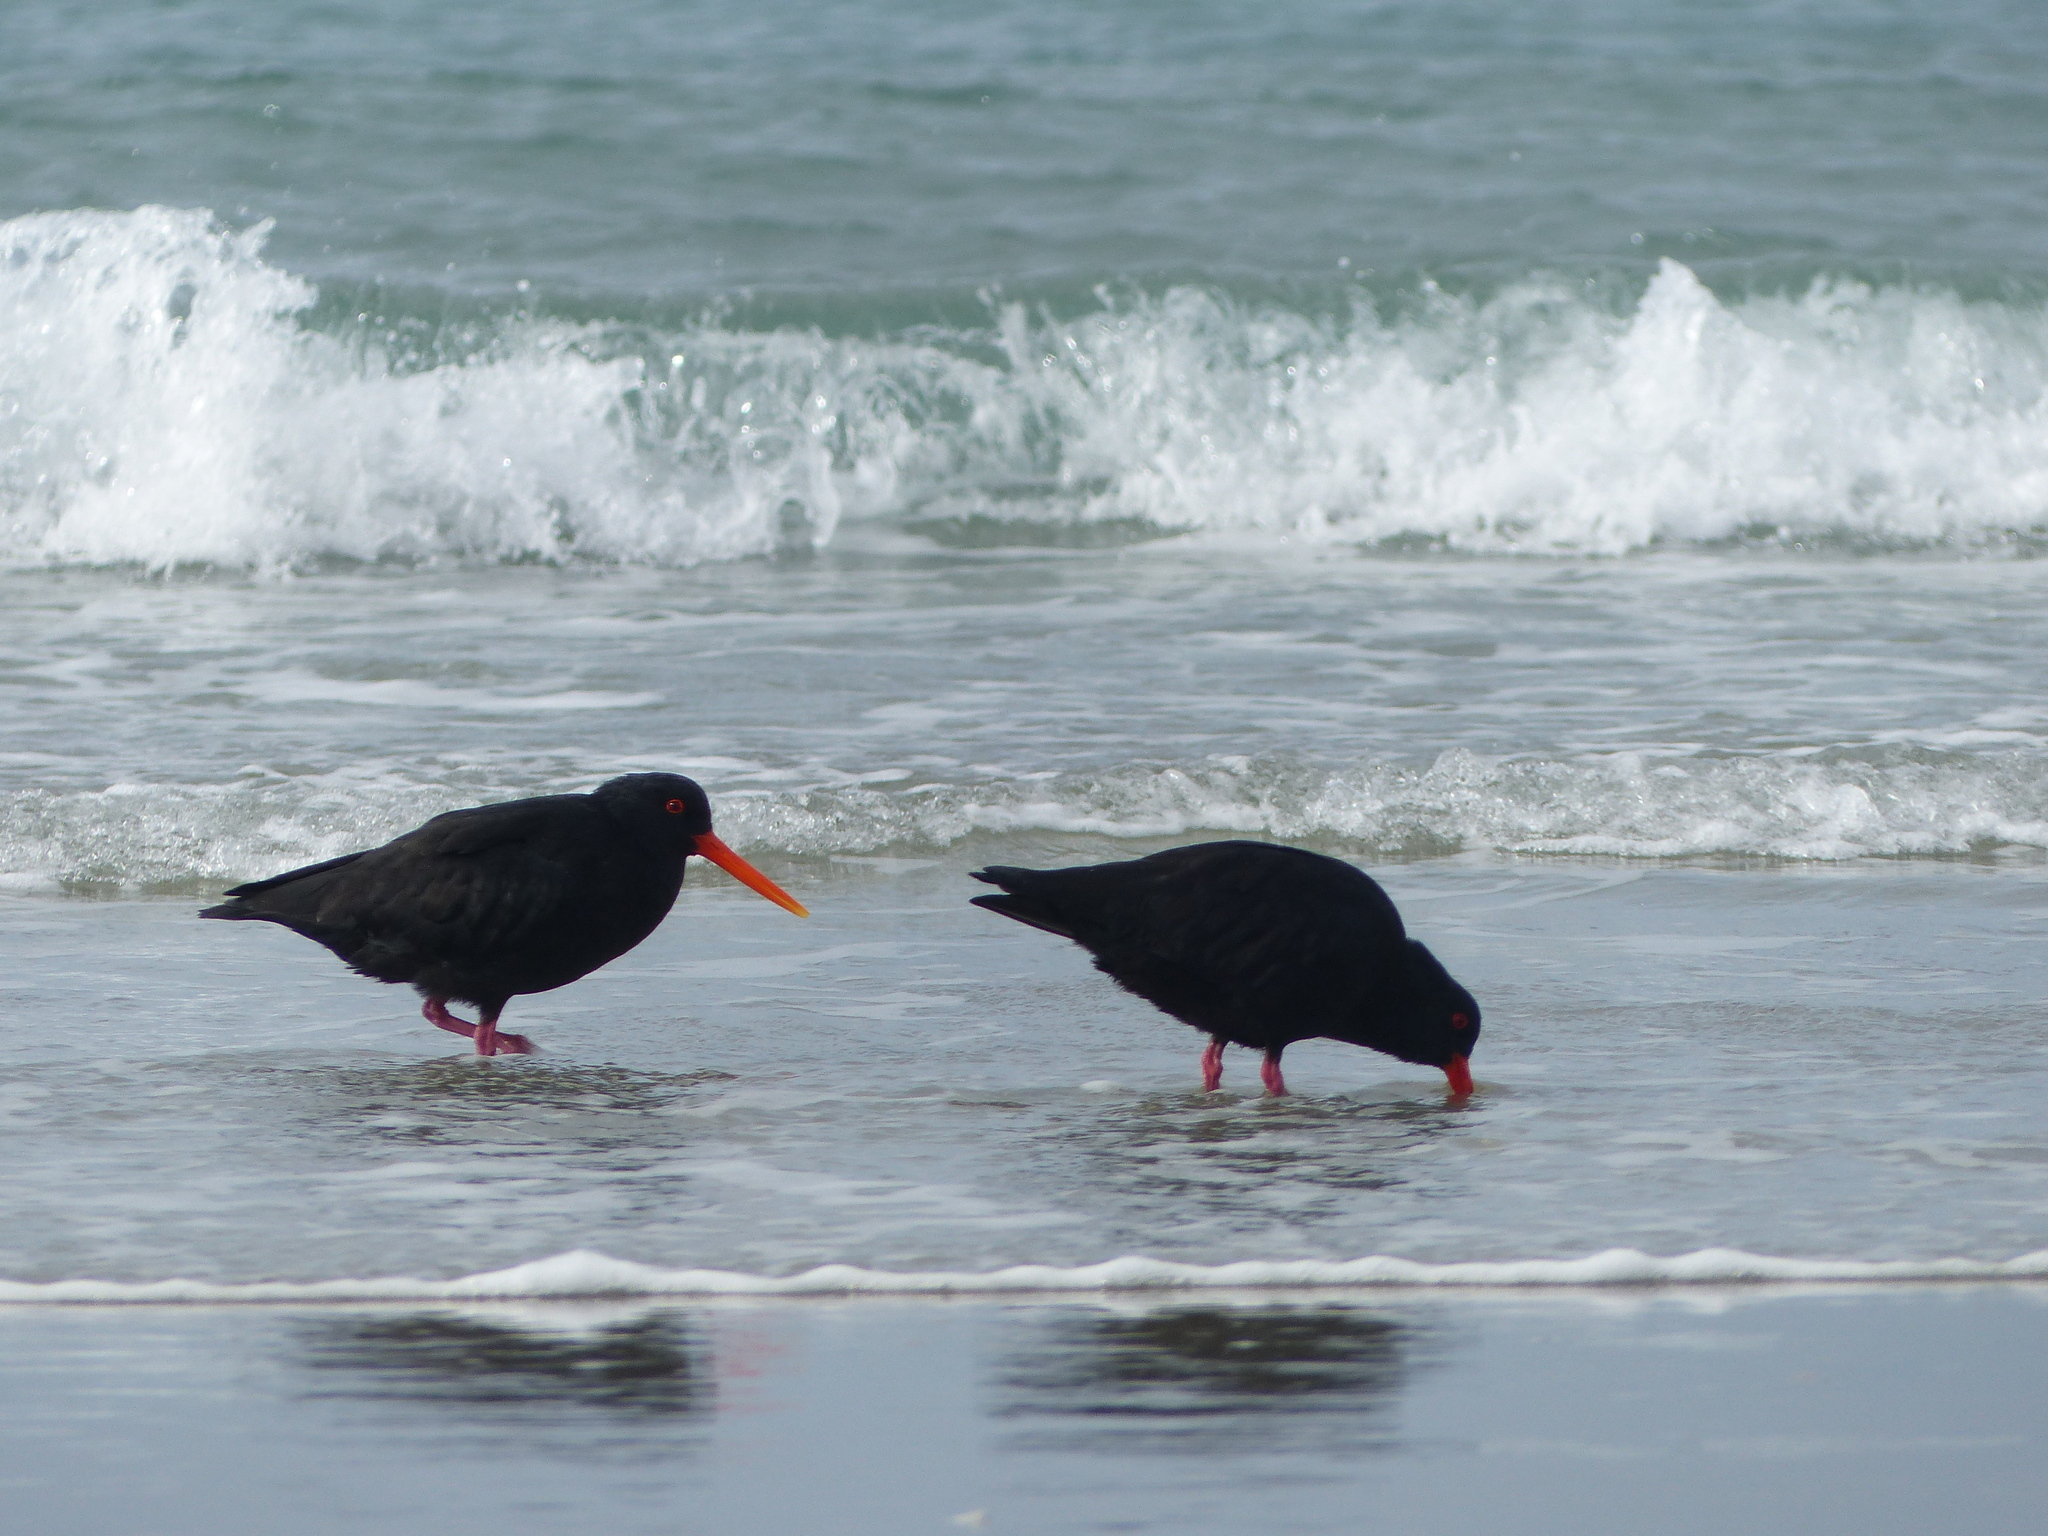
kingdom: Animalia
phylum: Chordata
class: Aves
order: Charadriiformes
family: Haematopodidae
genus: Haematopus
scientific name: Haematopus unicolor
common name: Variable oystercatcher
